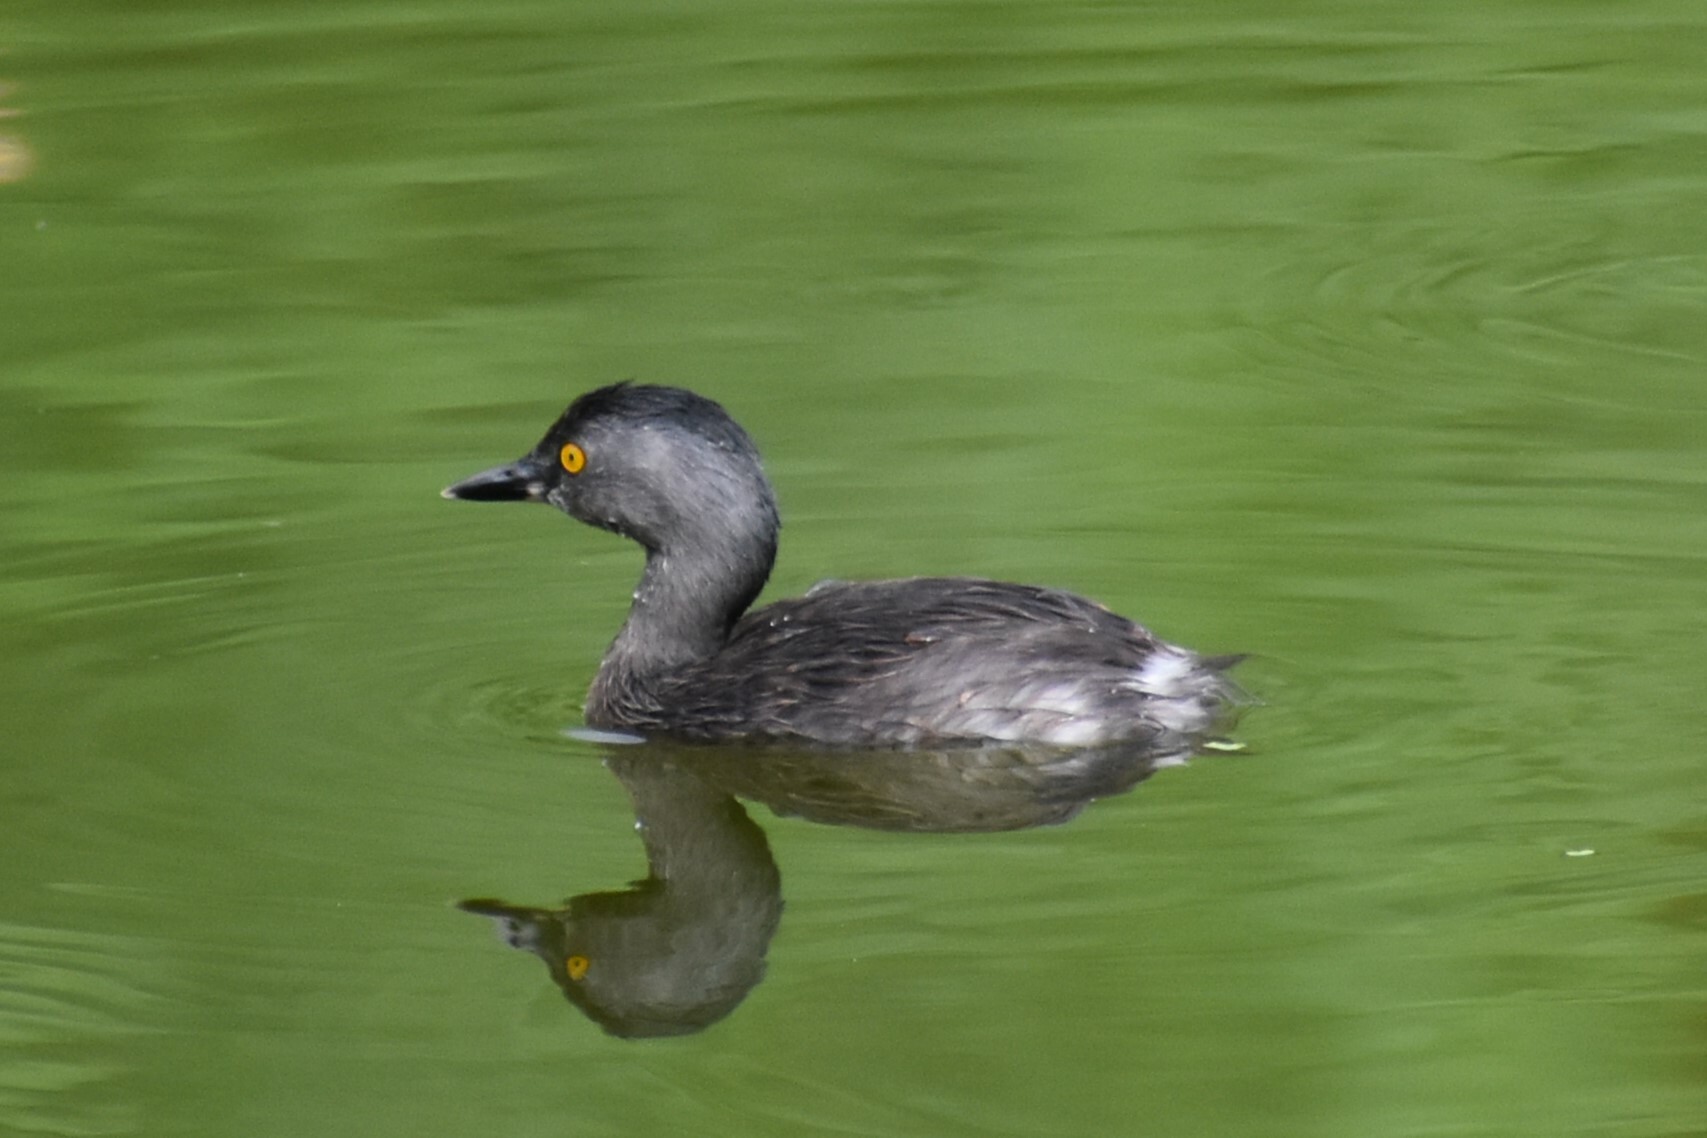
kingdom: Animalia
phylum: Chordata
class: Aves
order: Podicipediformes
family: Podicipedidae
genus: Tachybaptus
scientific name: Tachybaptus dominicus
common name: Least grebe
